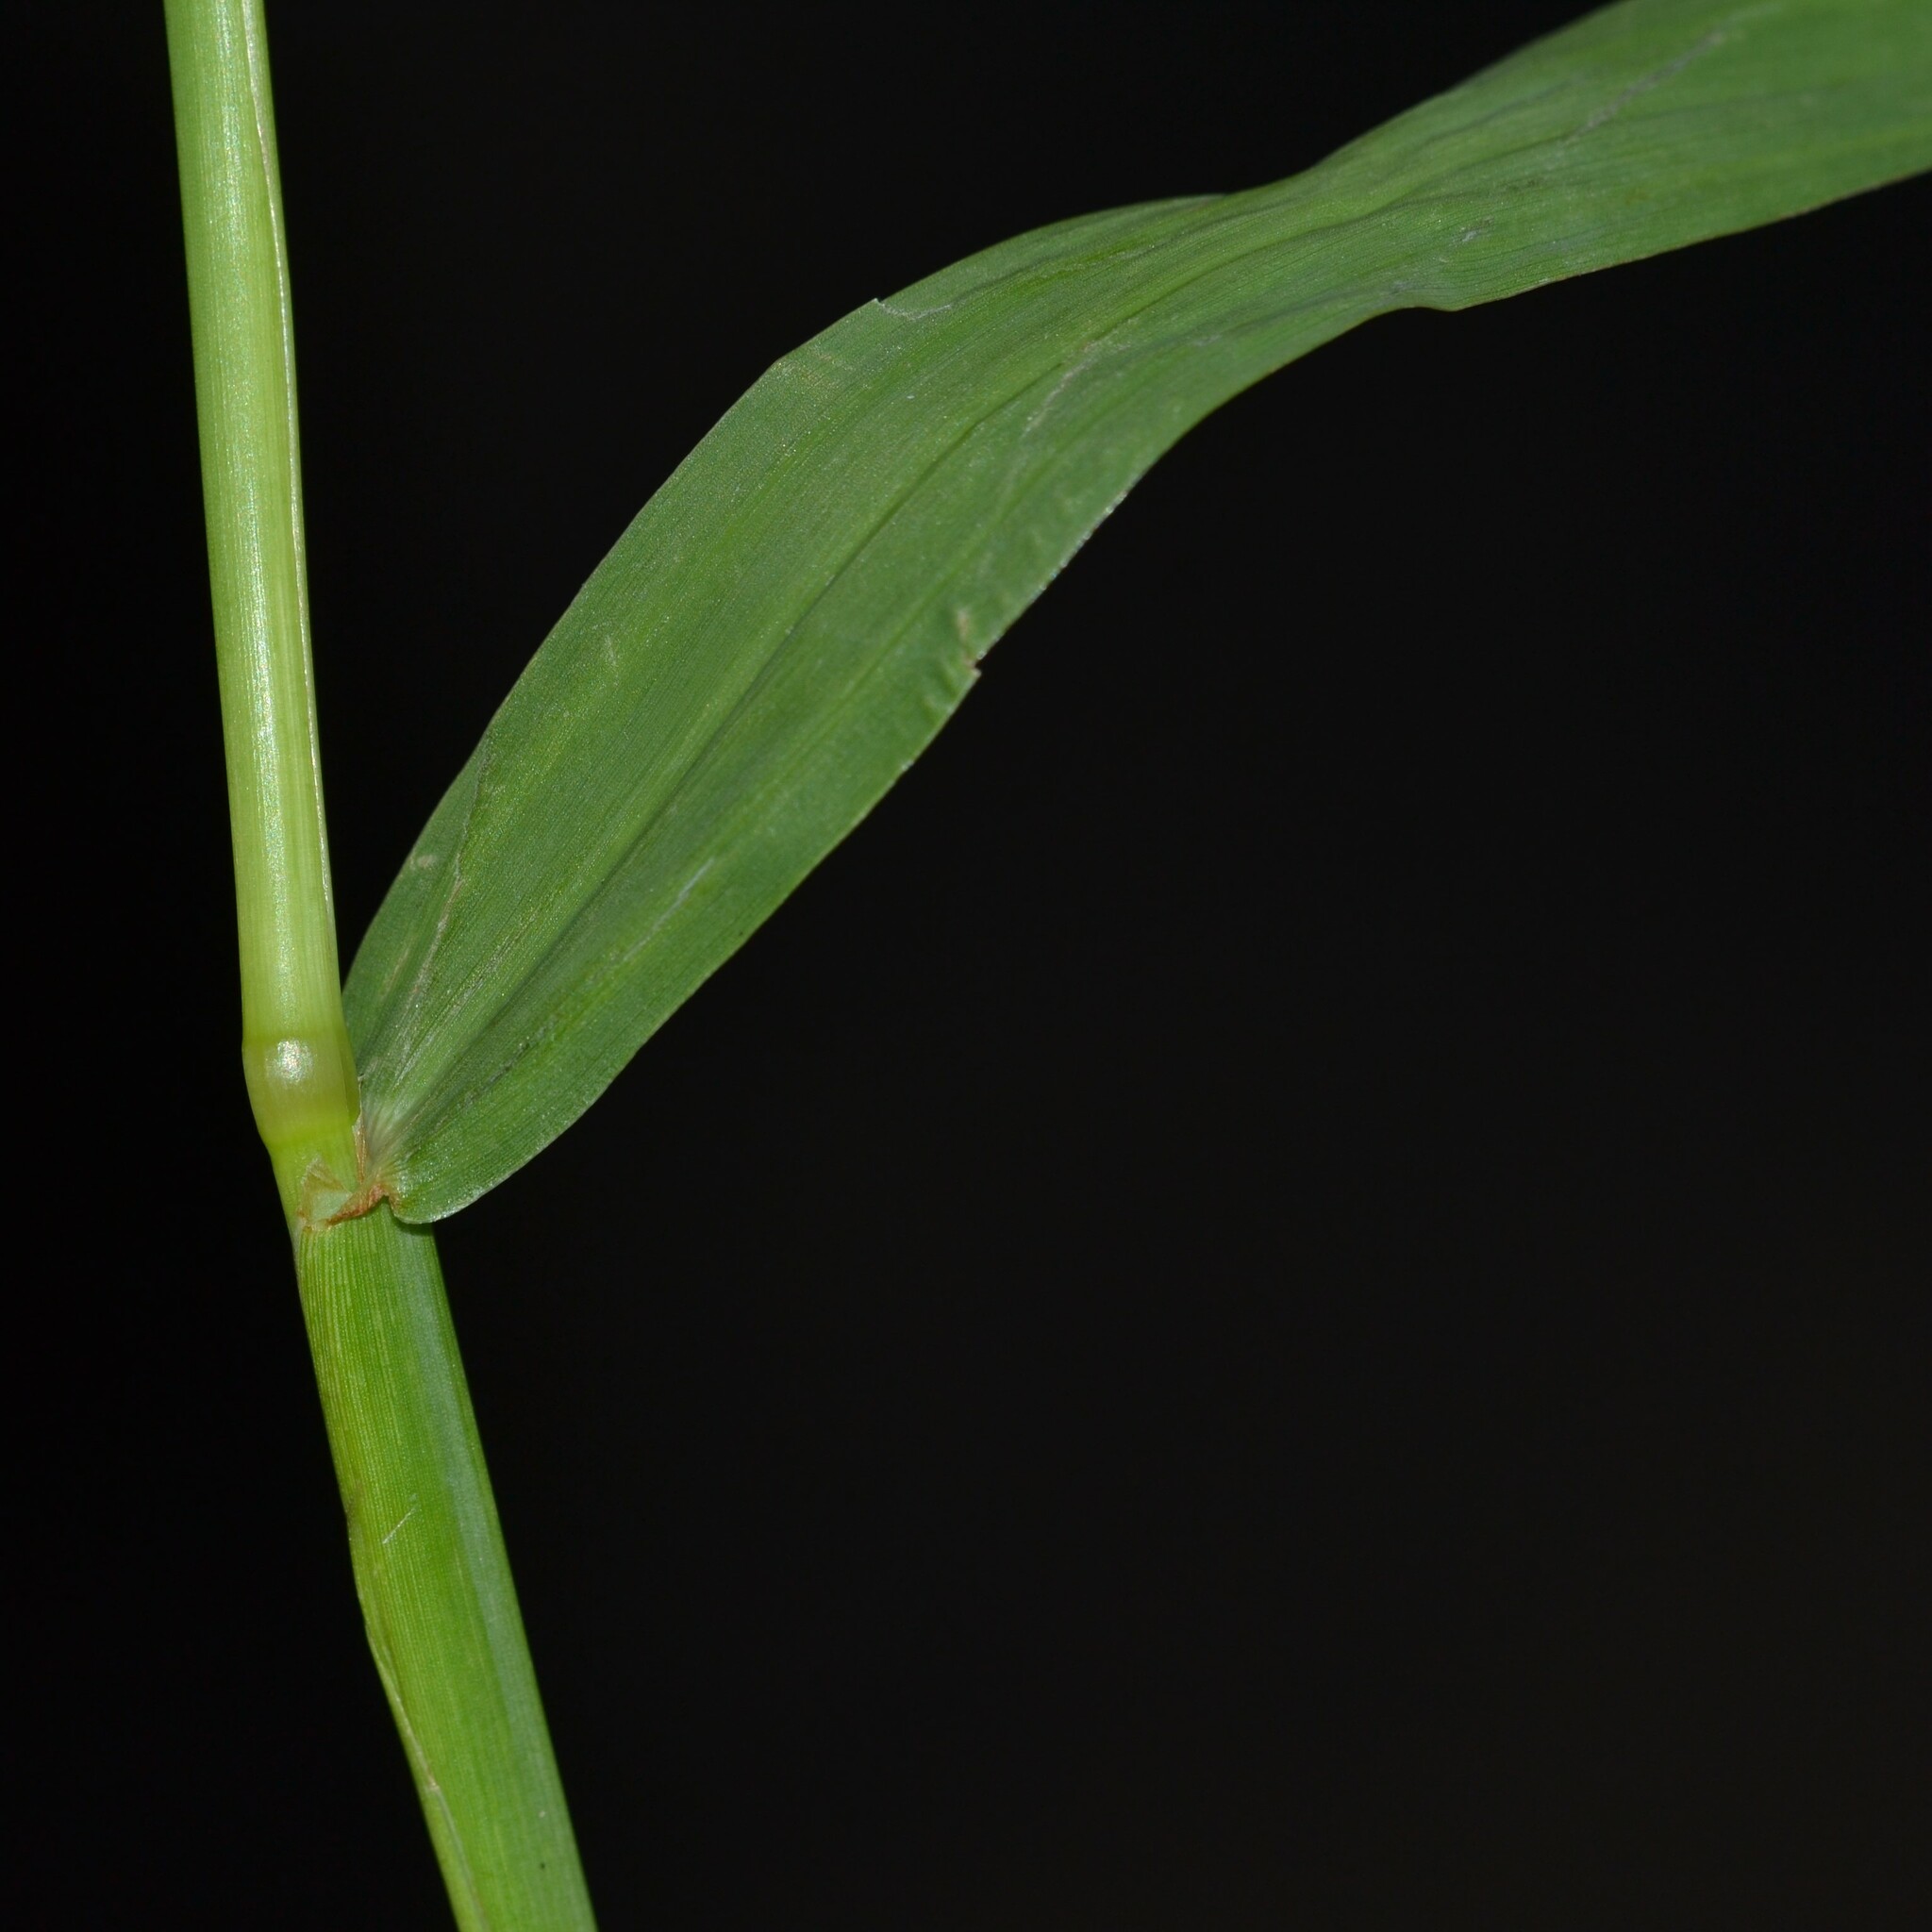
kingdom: Plantae
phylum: Tracheophyta
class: Liliopsida
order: Poales
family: Poaceae
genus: Paspalum
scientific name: Paspalum jesuiticum
